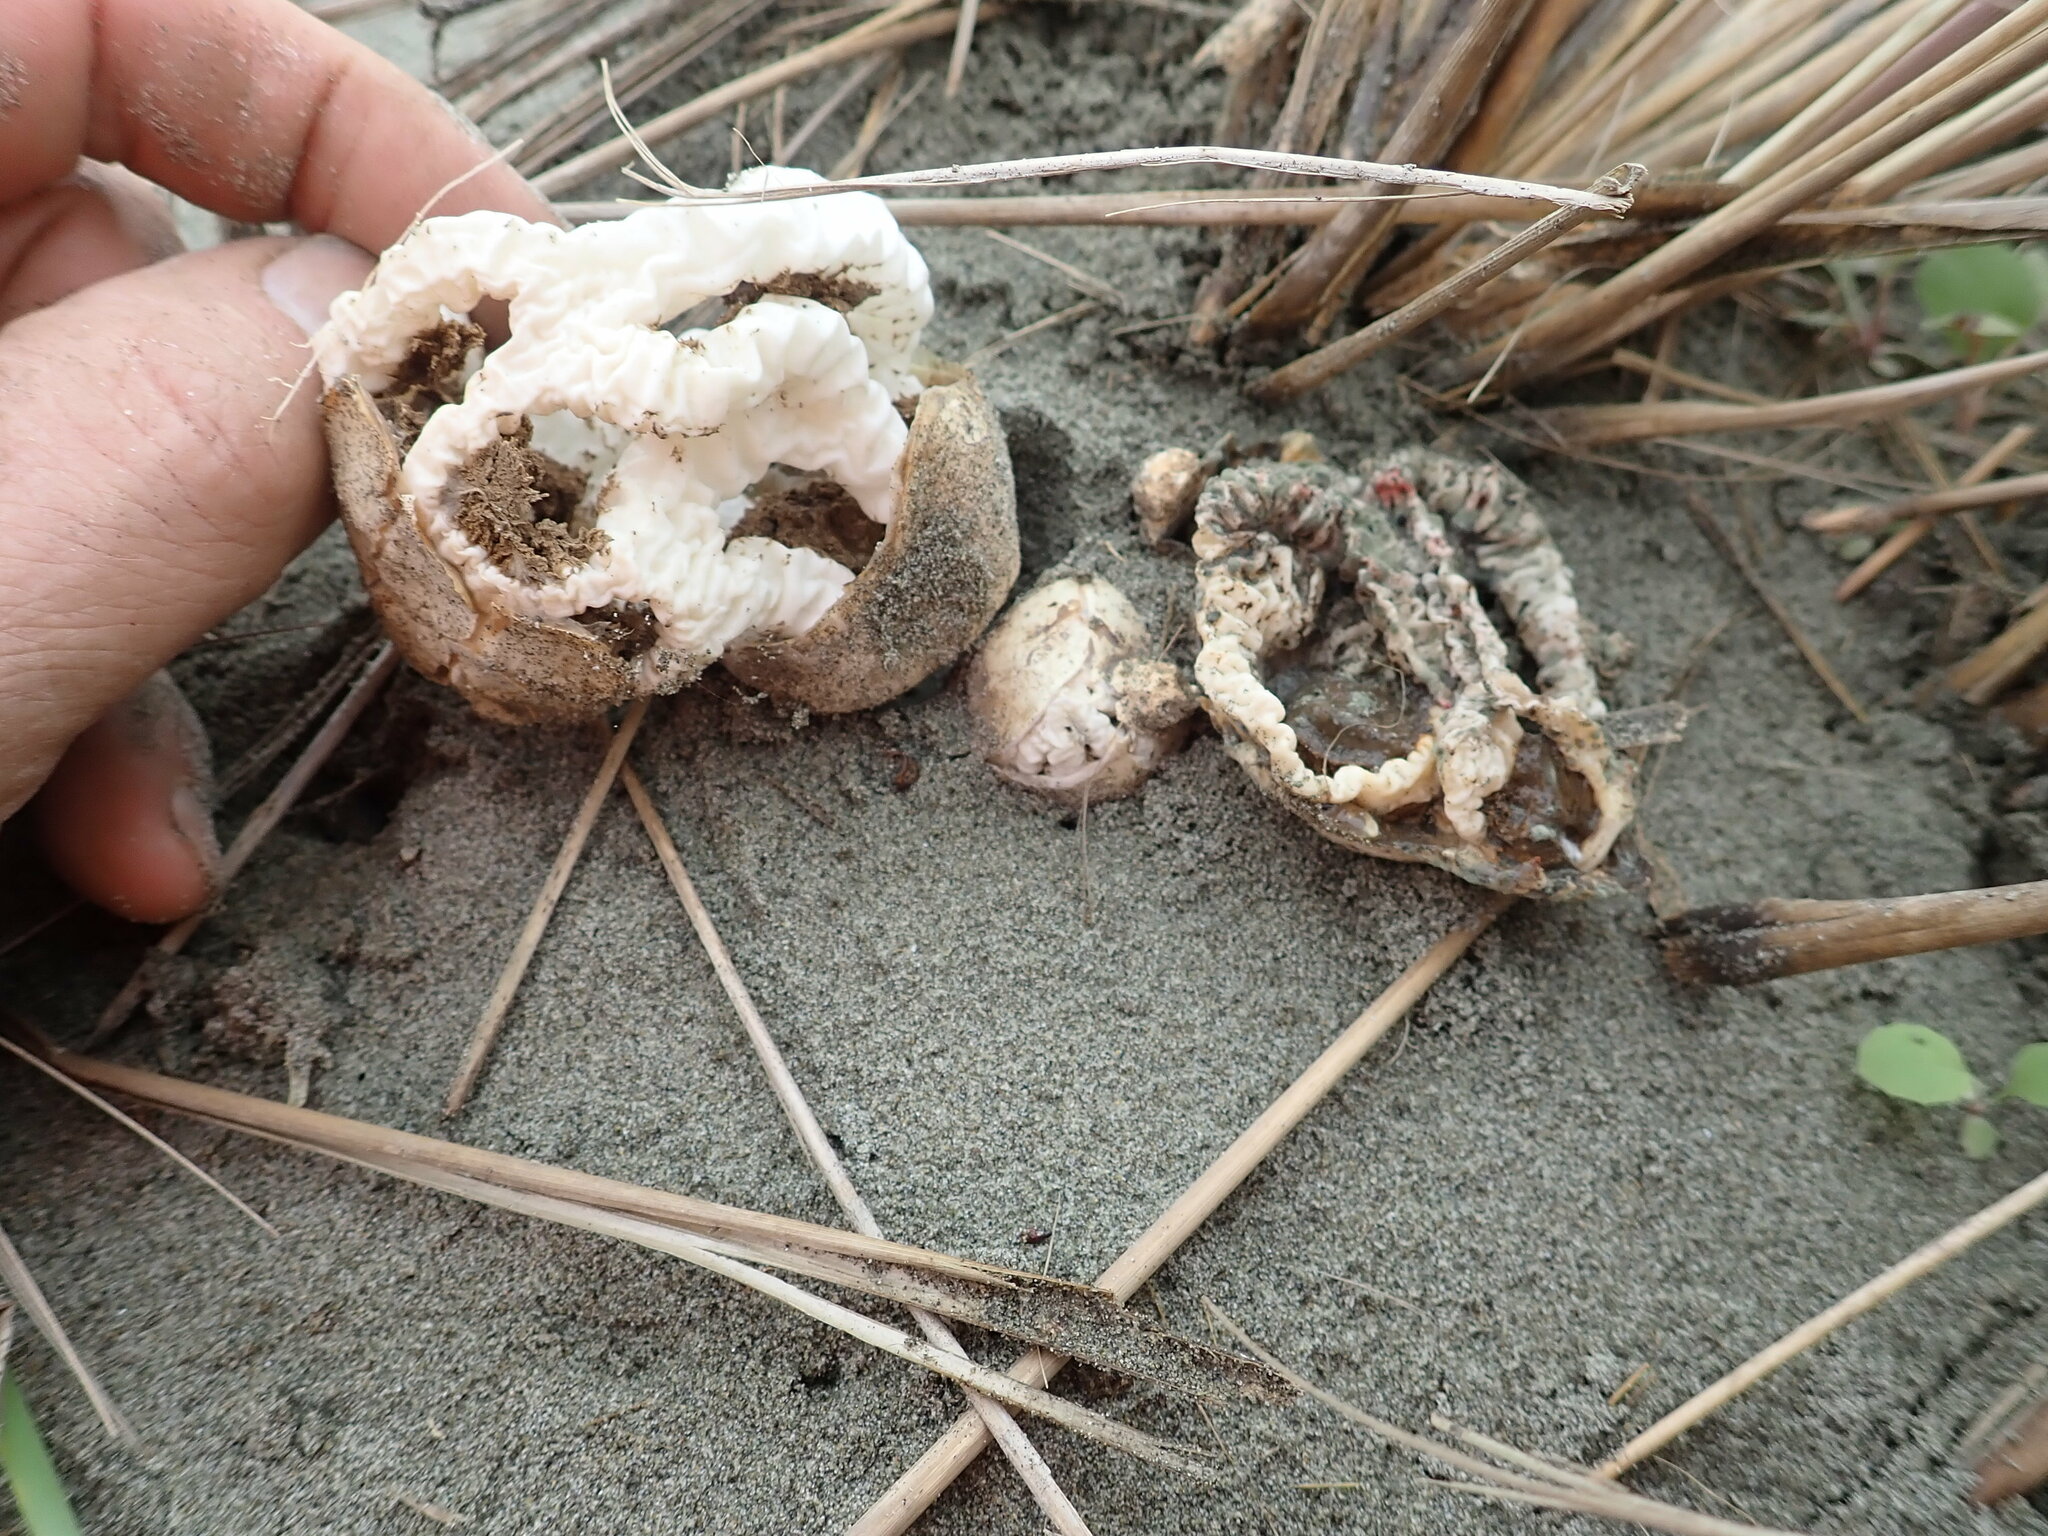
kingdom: Fungi
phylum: Basidiomycota
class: Agaricomycetes
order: Phallales
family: Phallaceae
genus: Ileodictyon
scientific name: Ileodictyon cibarium
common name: Basket fungus
